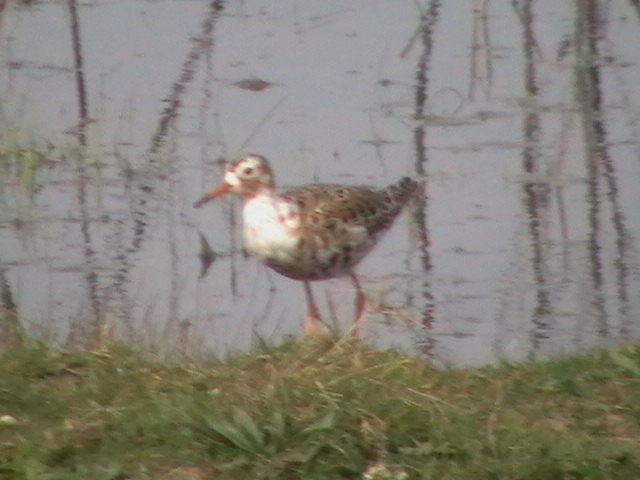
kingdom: Animalia
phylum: Chordata
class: Aves
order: Charadriiformes
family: Scolopacidae
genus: Calidris
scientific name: Calidris pugnax
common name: Ruff
